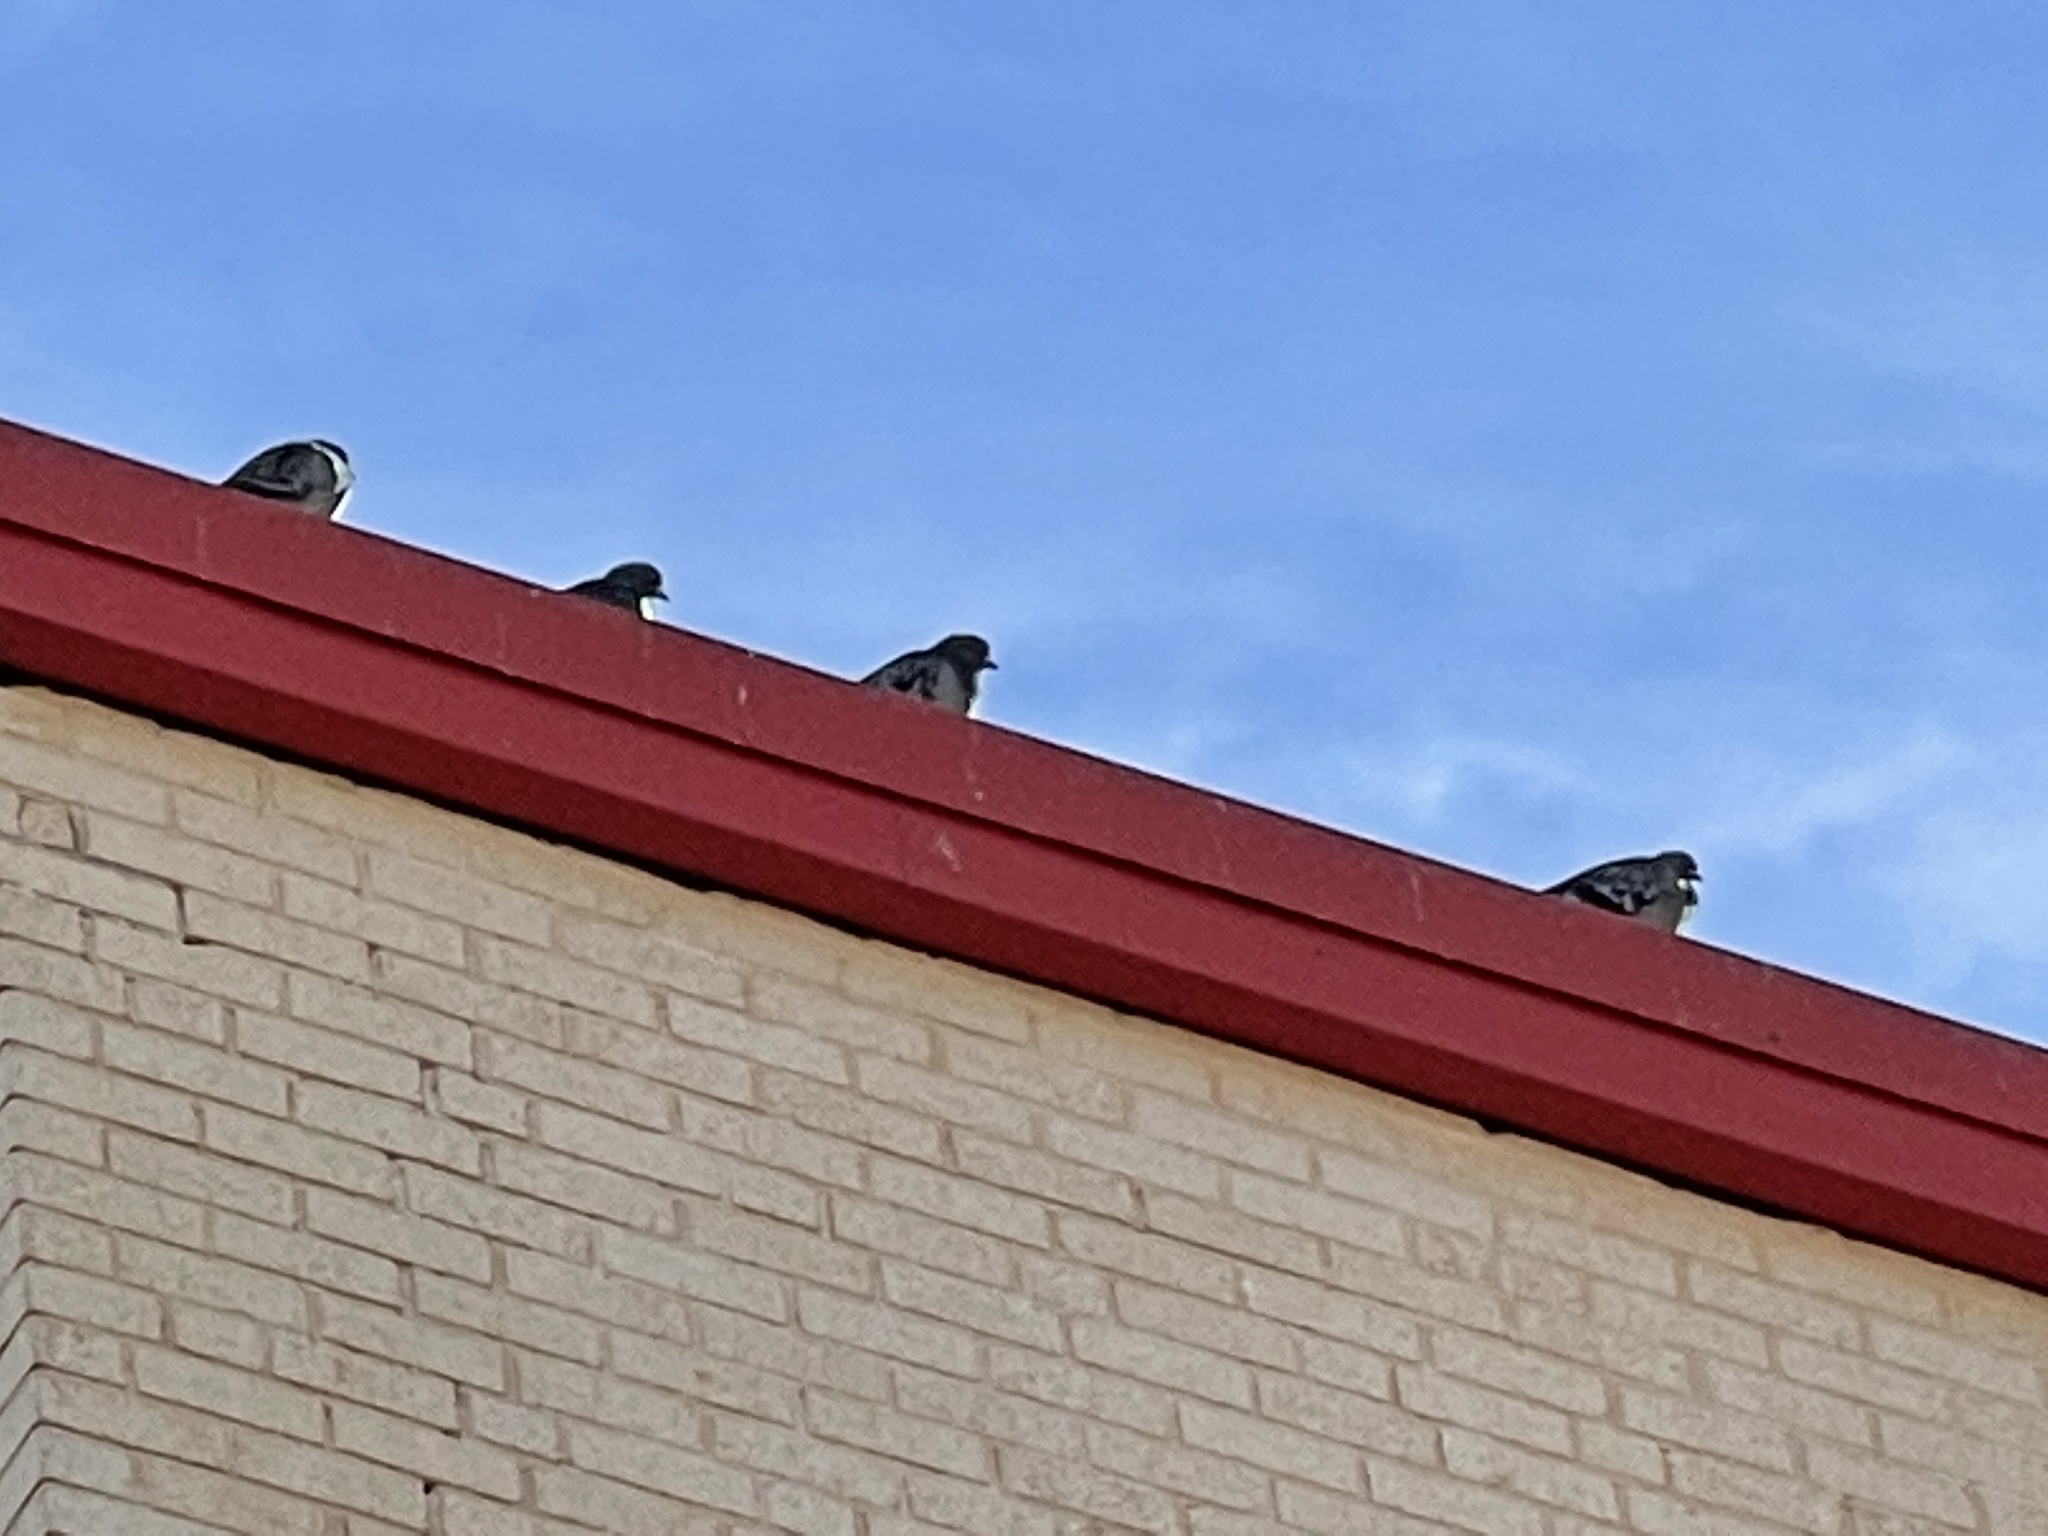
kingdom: Animalia
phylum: Chordata
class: Aves
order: Columbiformes
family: Columbidae
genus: Columba
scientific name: Columba livia
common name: Rock pigeon
